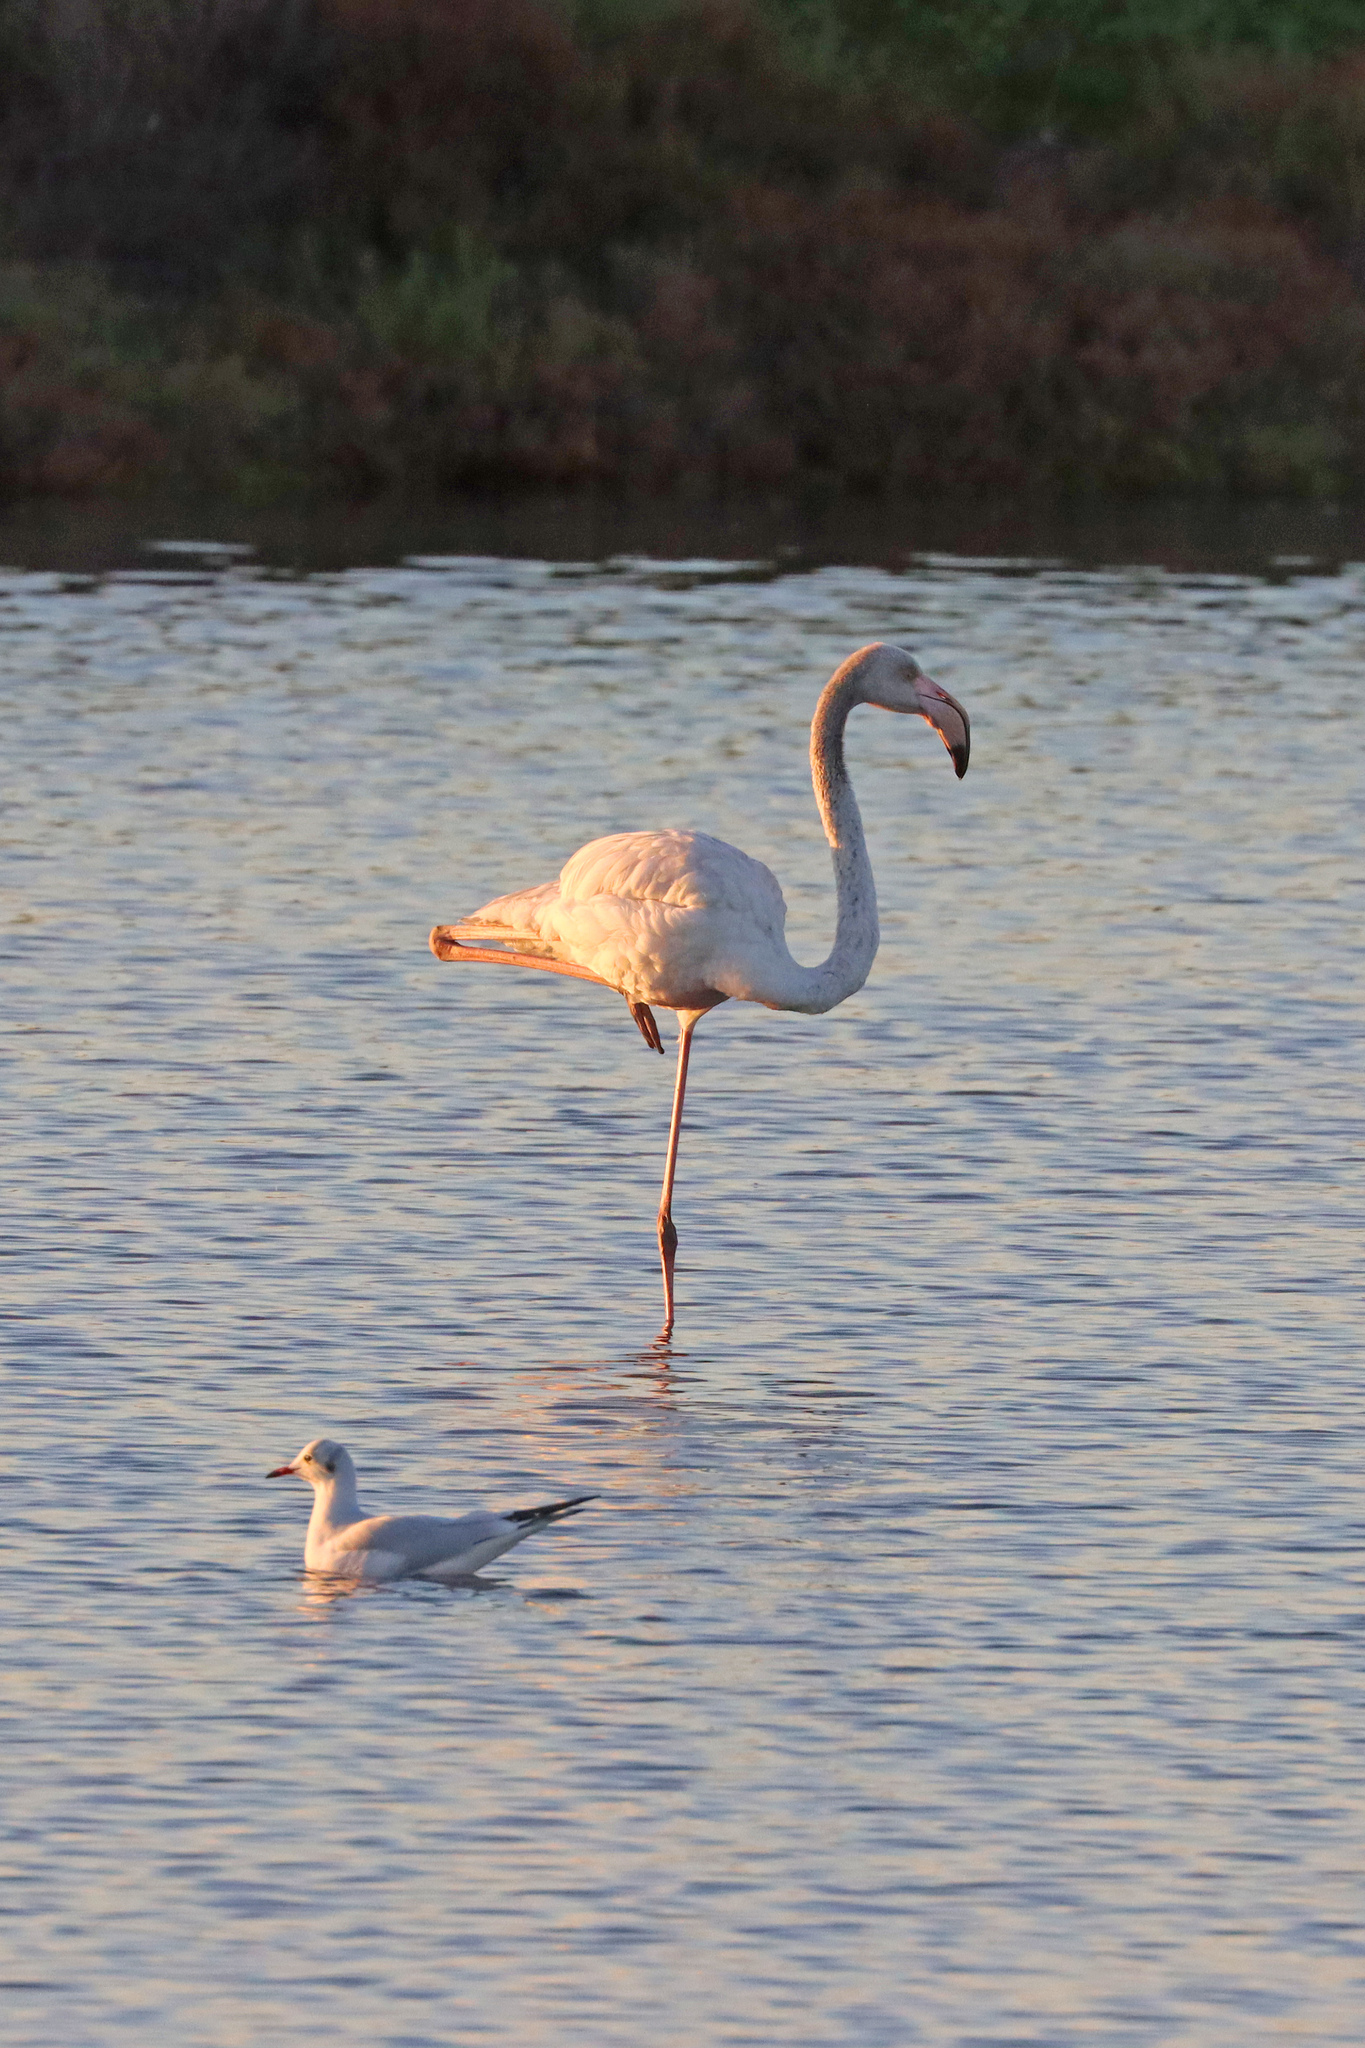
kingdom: Animalia
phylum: Chordata
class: Aves
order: Phoenicopteriformes
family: Phoenicopteridae
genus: Phoenicopterus
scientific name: Phoenicopterus roseus
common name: Greater flamingo
